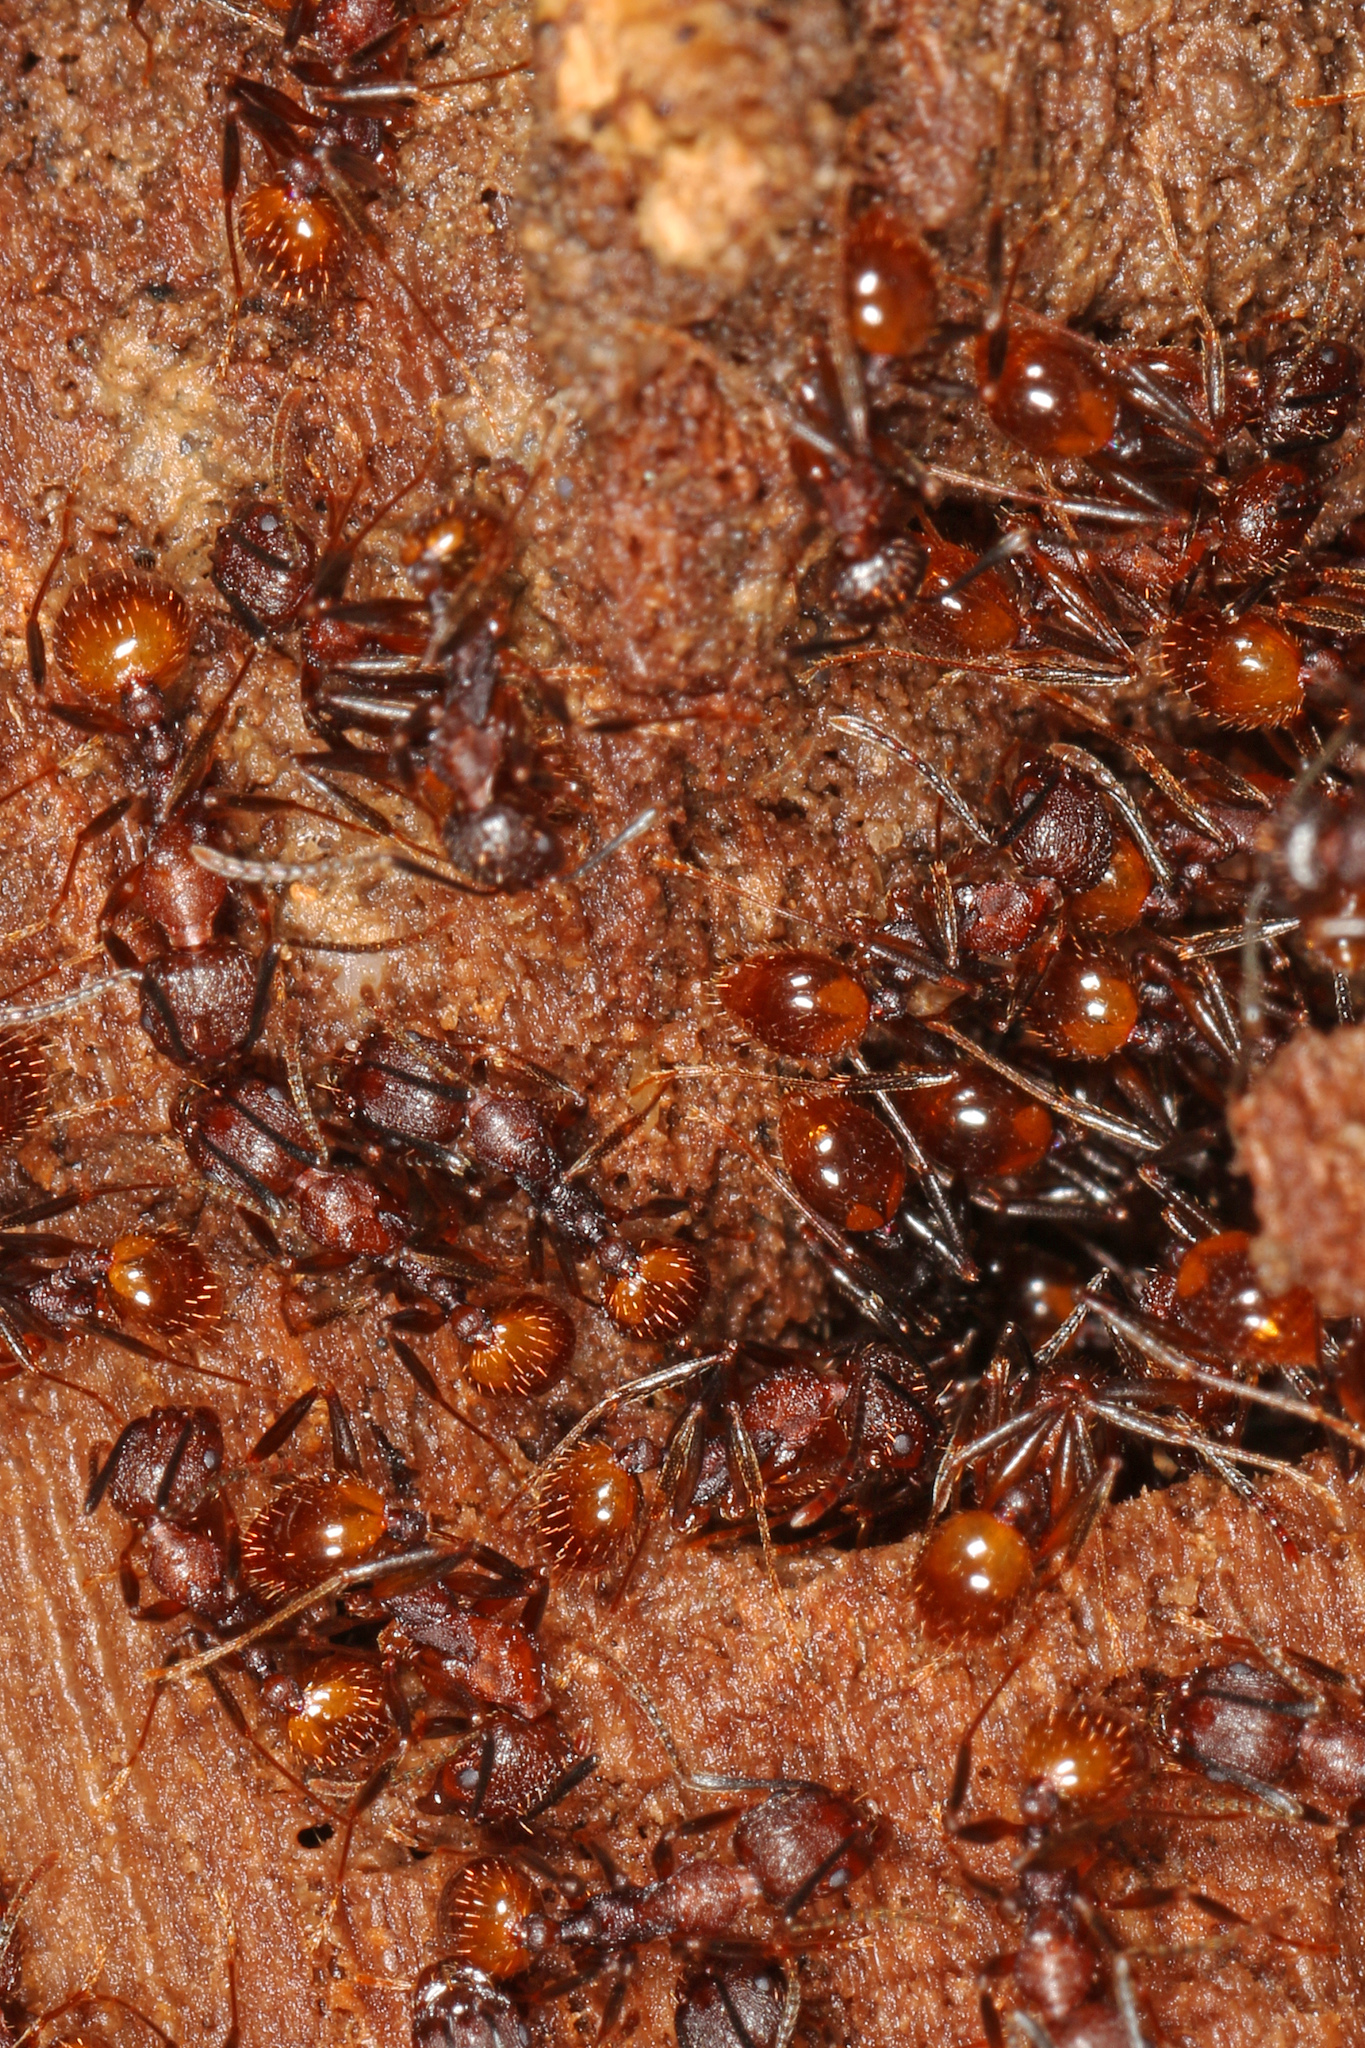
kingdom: Animalia
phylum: Arthropoda
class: Insecta
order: Hymenoptera
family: Formicidae
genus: Aphaenogaster
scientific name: Aphaenogaster tennesseensis
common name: Tennessee thread-waisted ant
